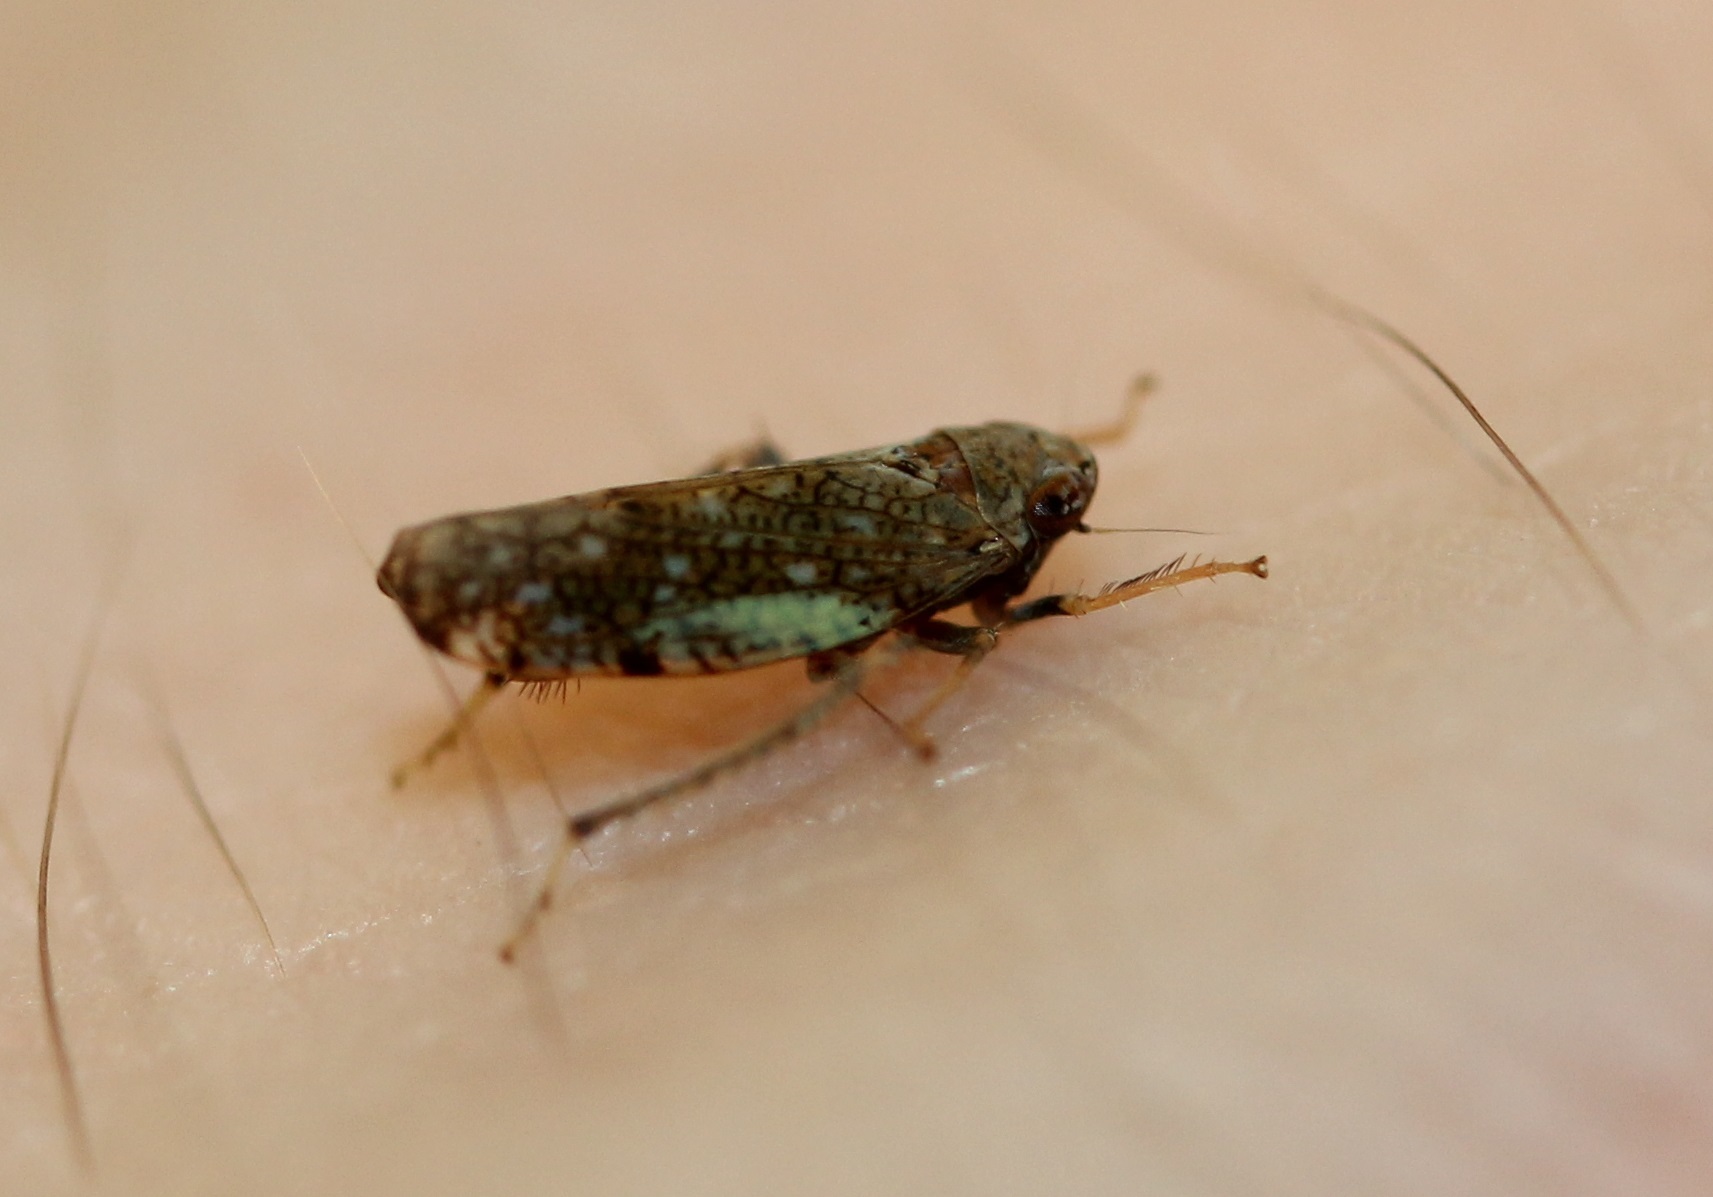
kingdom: Animalia
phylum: Arthropoda
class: Insecta
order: Hemiptera
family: Cicadellidae
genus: Orientus
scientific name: Orientus ishidae
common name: Japanese leafhopper
